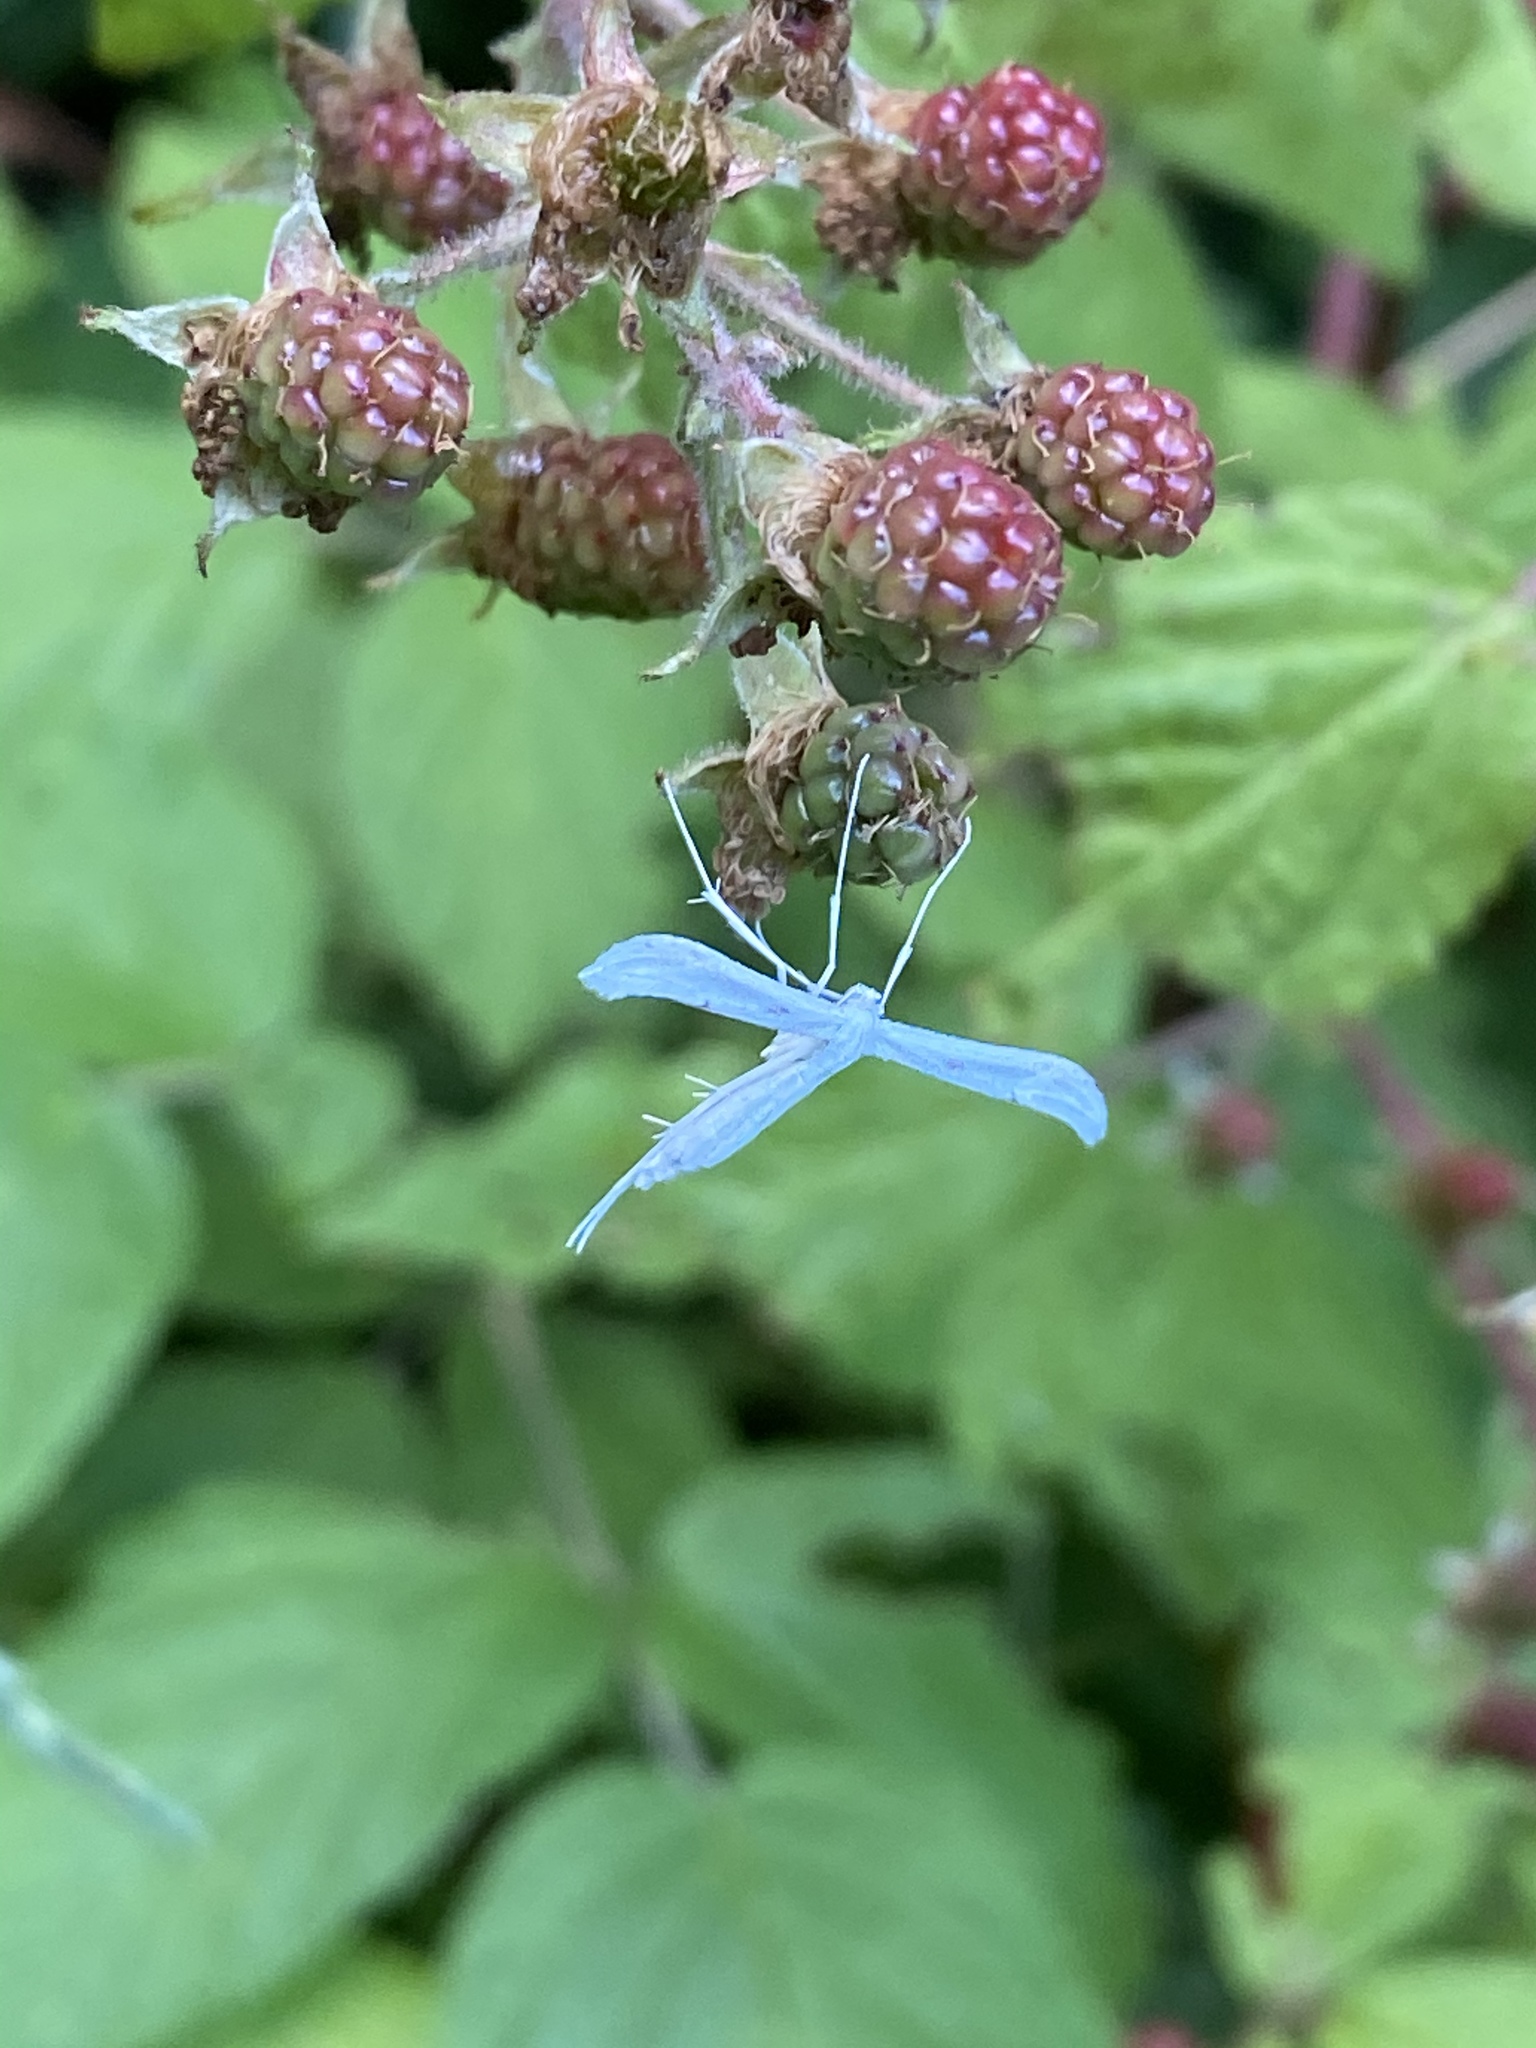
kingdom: Animalia
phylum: Arthropoda
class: Insecta
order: Lepidoptera
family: Pterophoridae
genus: Hellinsia
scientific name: Hellinsia homodactylus
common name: Plain plume moth
